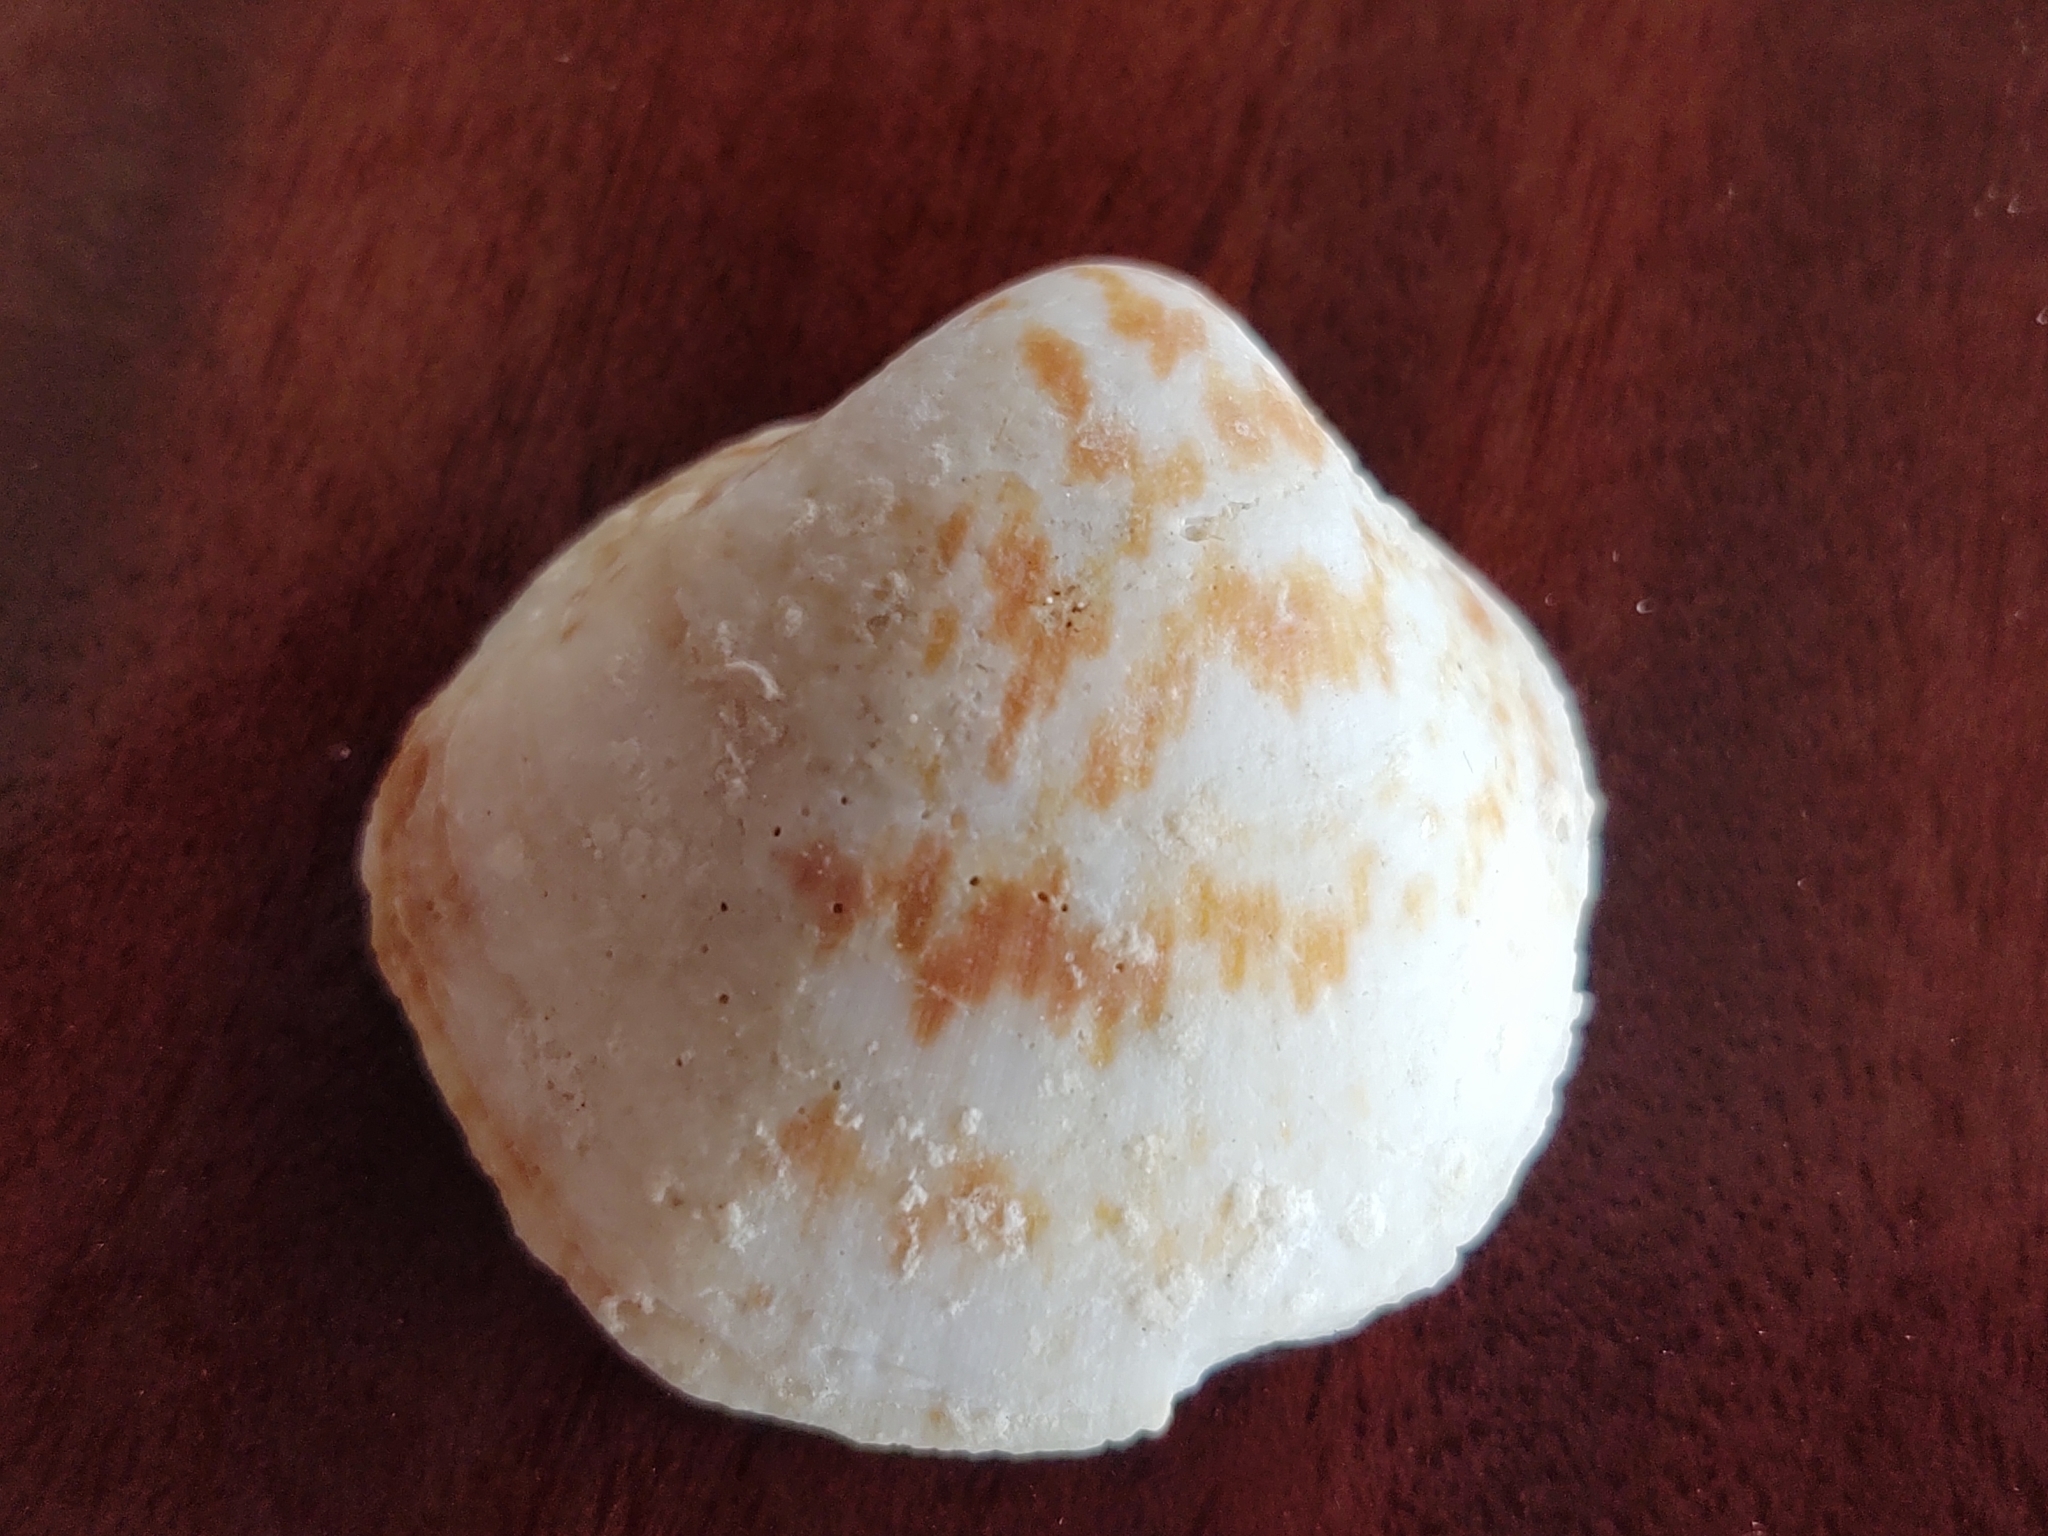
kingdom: Animalia
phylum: Mollusca
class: Bivalvia
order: Arcida
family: Glycymerididae
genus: Glycymeris
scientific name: Glycymeris undata
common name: Atlantic bittersweet
